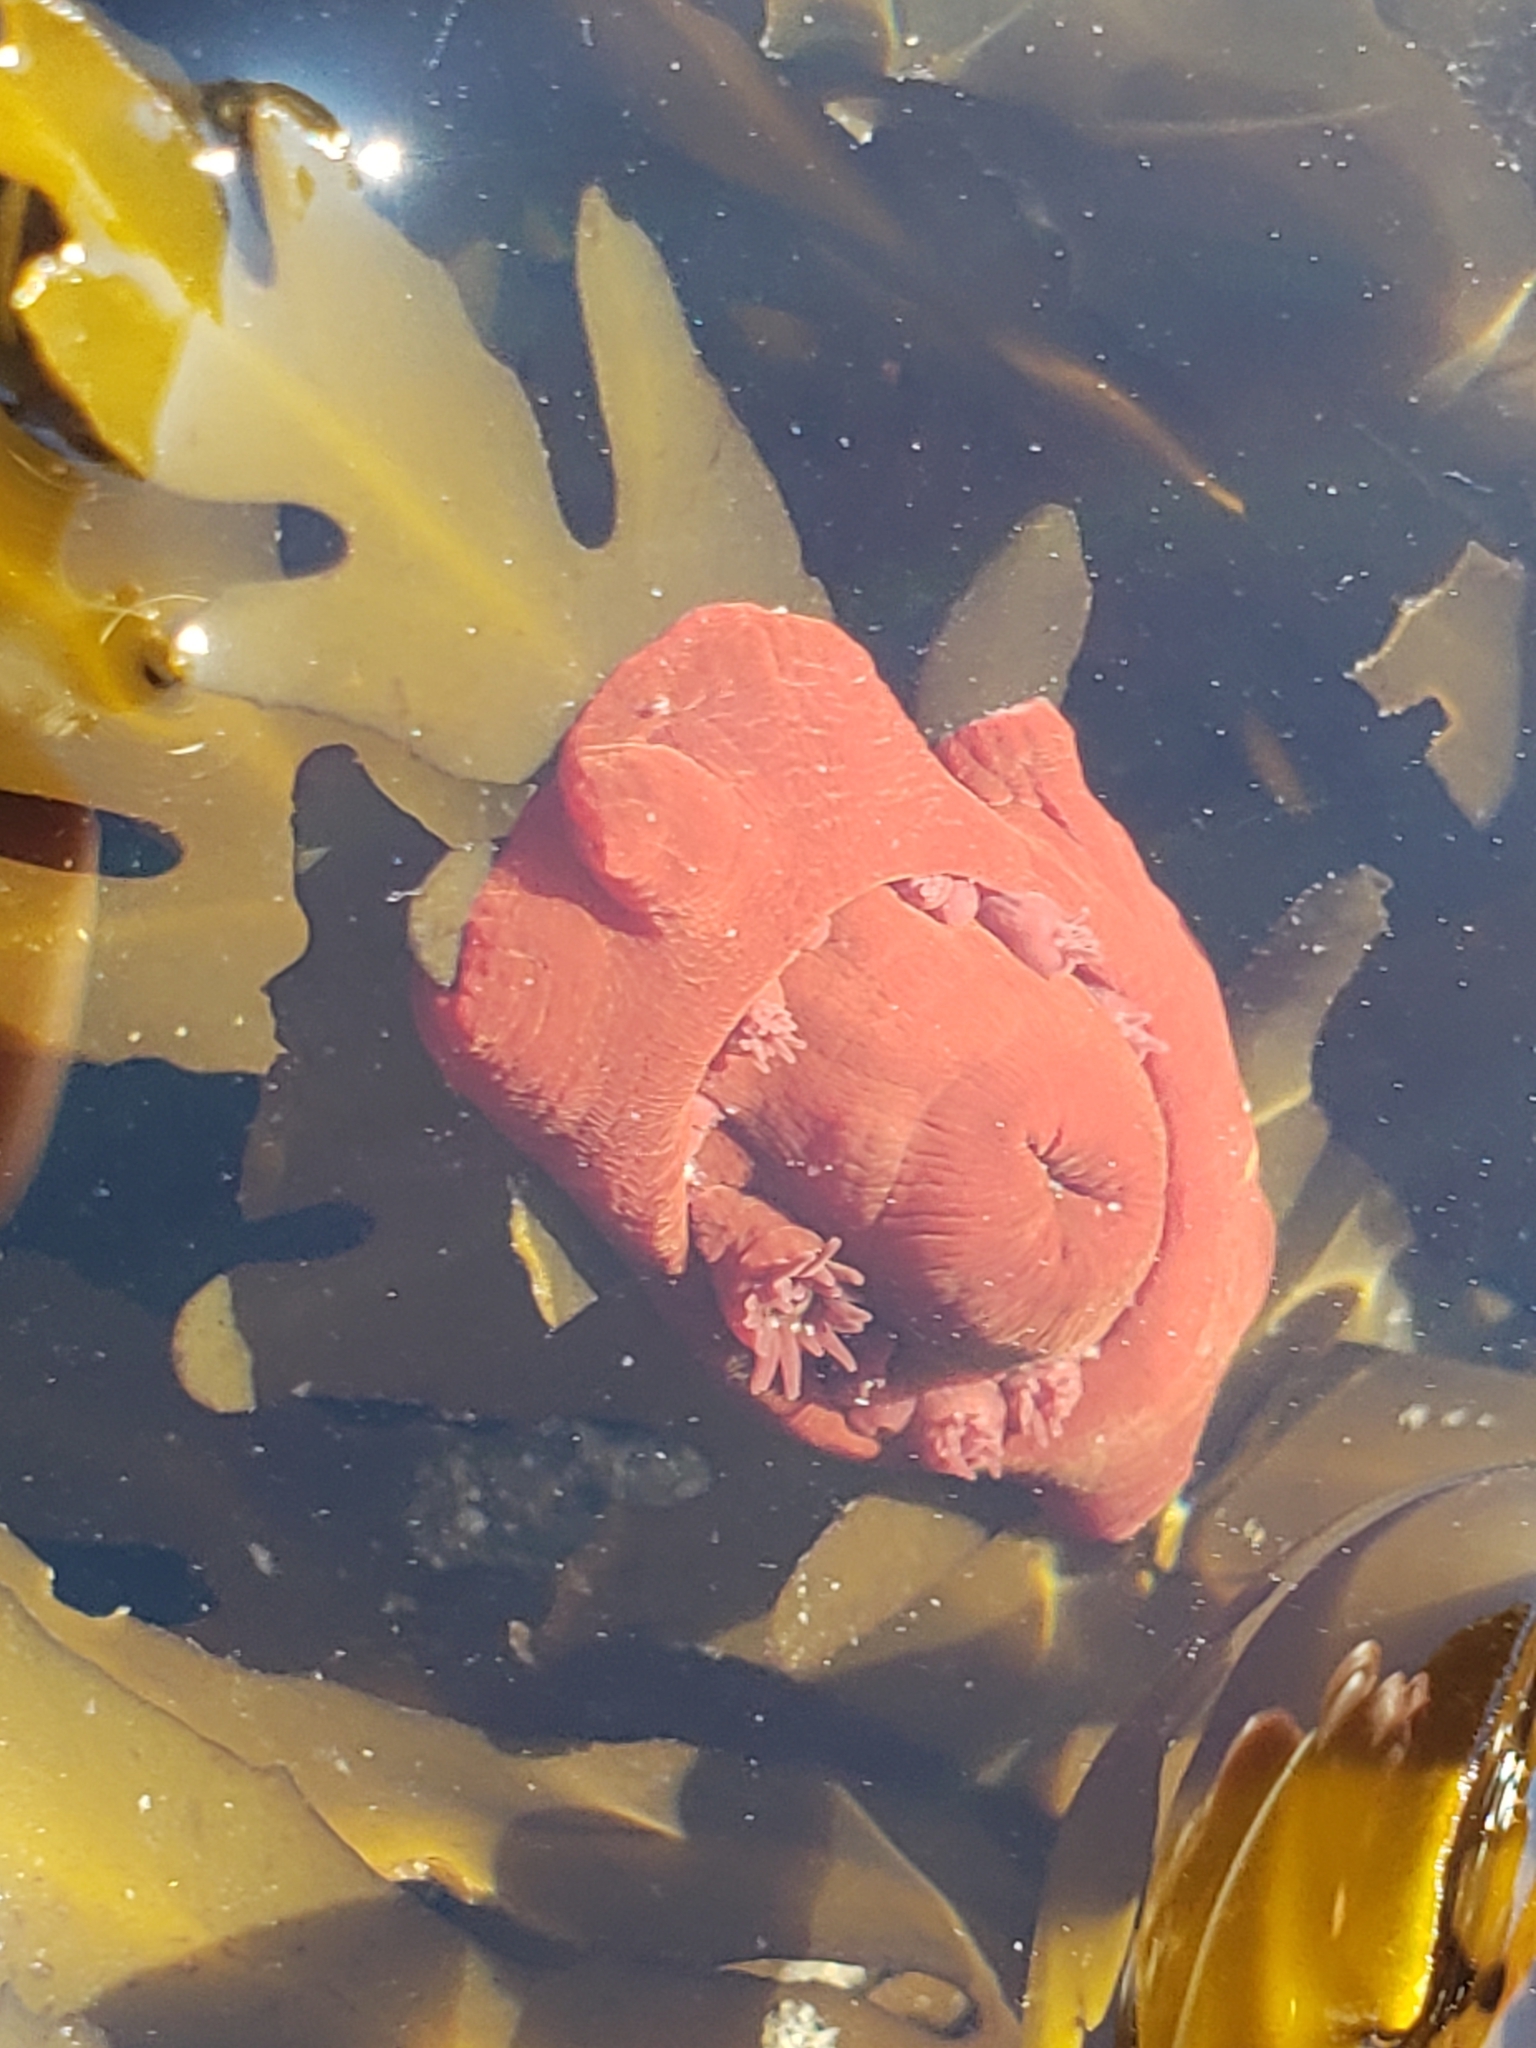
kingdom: Animalia
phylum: Cnidaria
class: Anthozoa
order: Actiniaria
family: Actiniidae
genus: Epiactis
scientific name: Epiactis prolifera
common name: Brooding anemone
